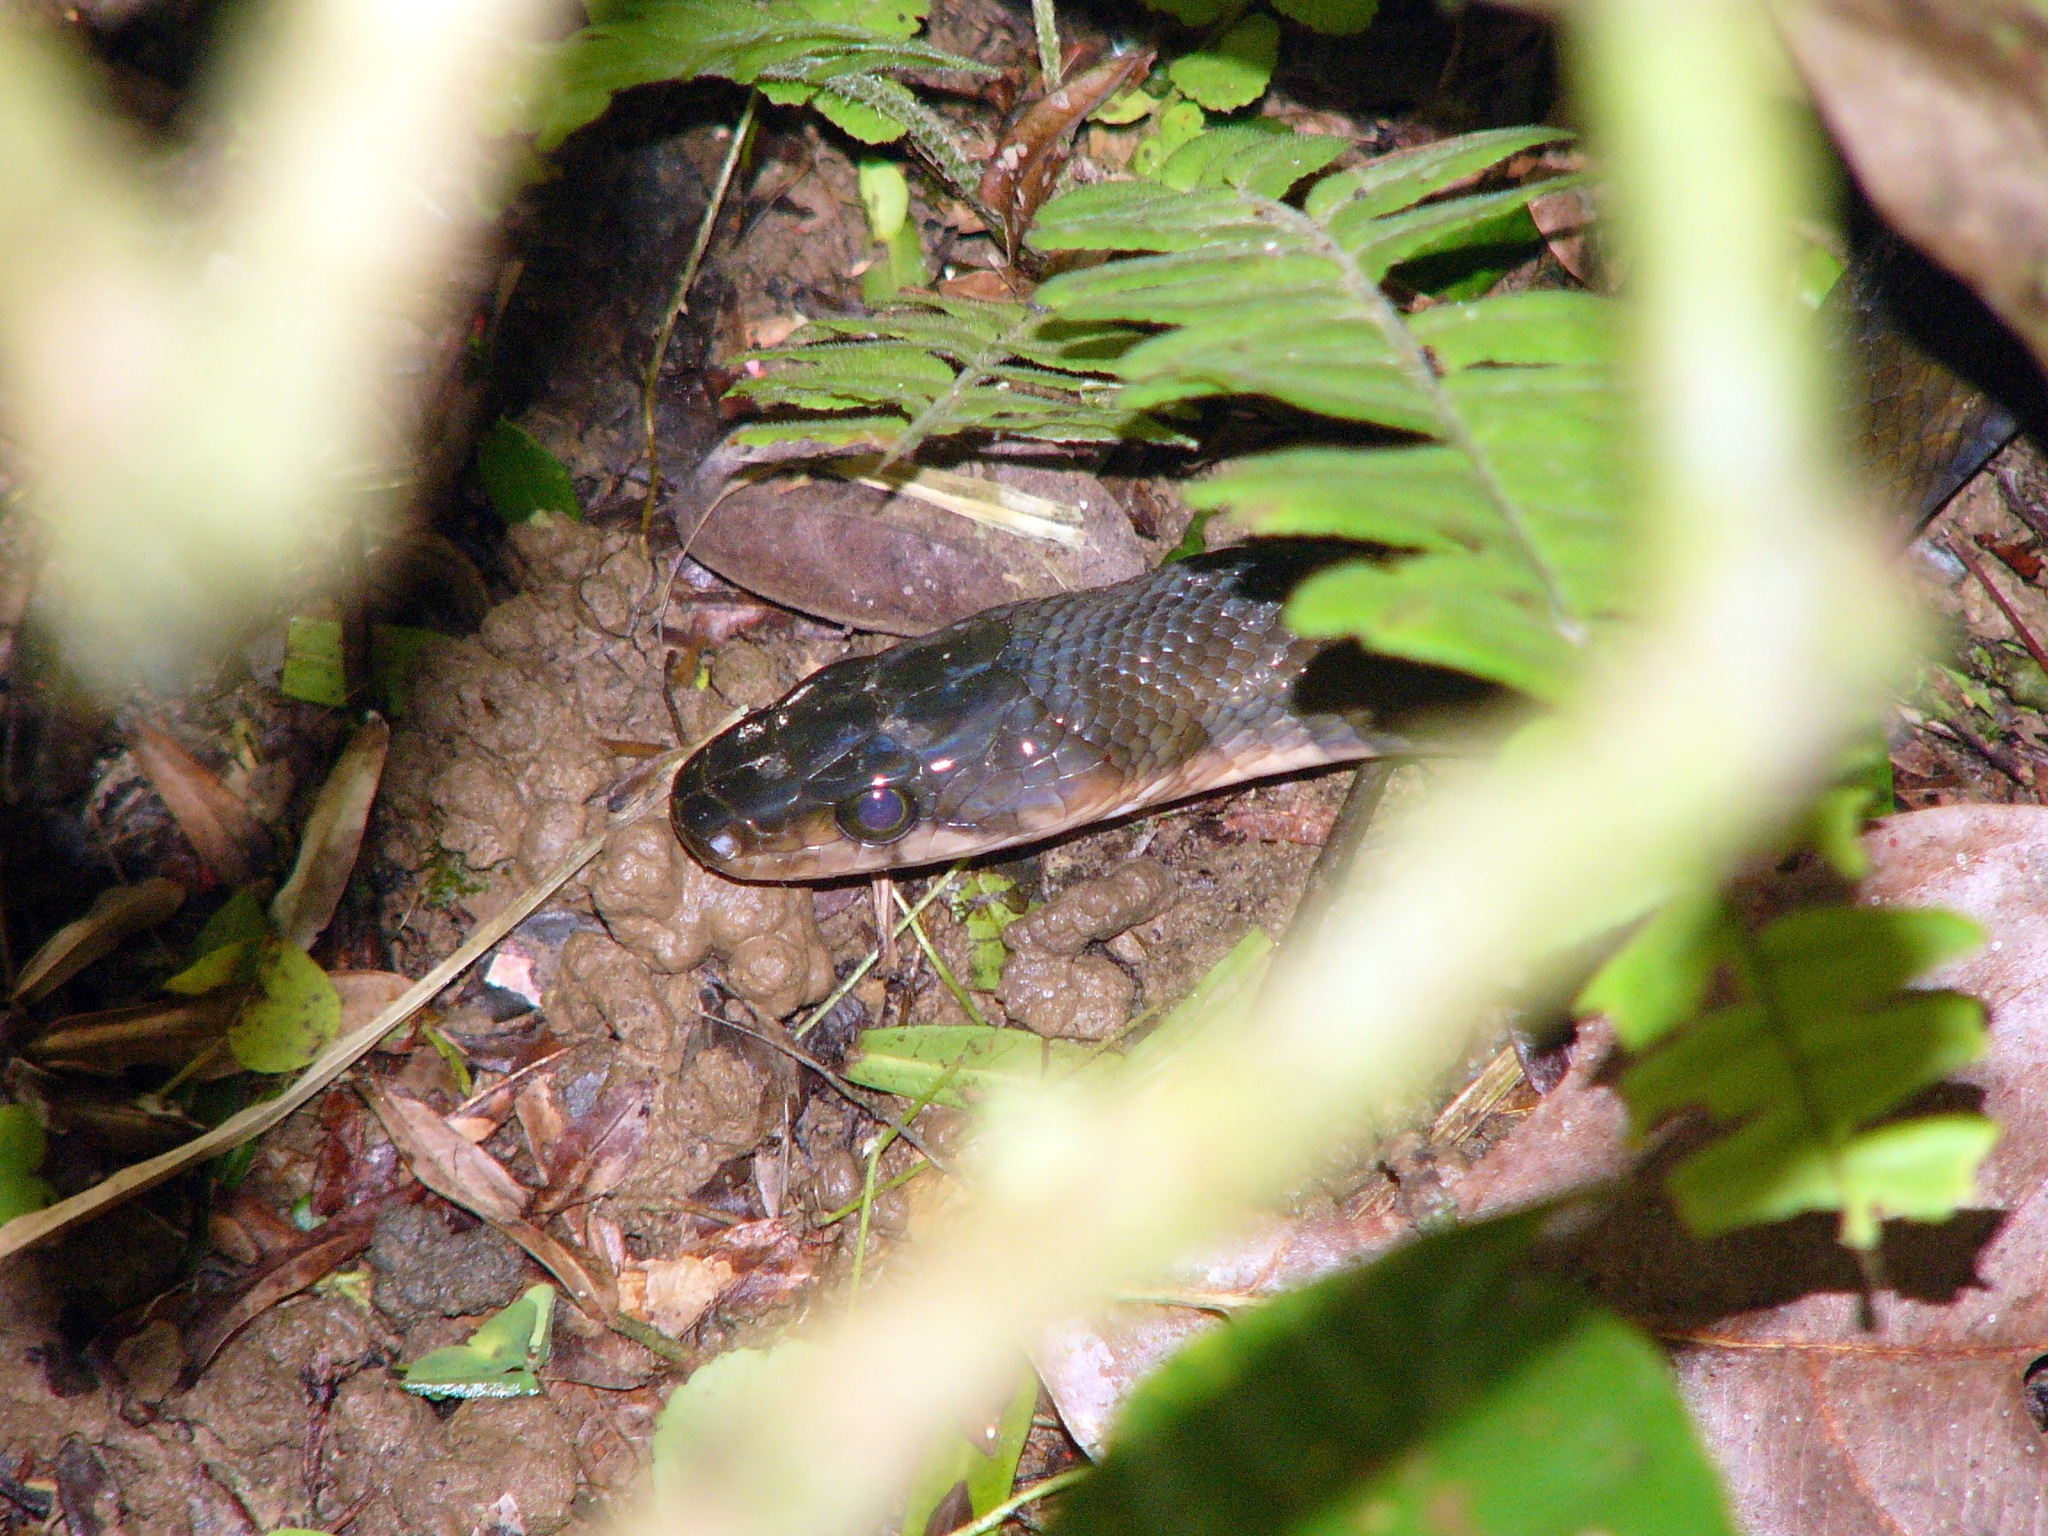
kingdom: Animalia
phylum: Chordata
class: Squamata
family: Colubridae
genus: Coelognathus
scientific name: Coelognathus flavolineatus
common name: Black copper rat snake
